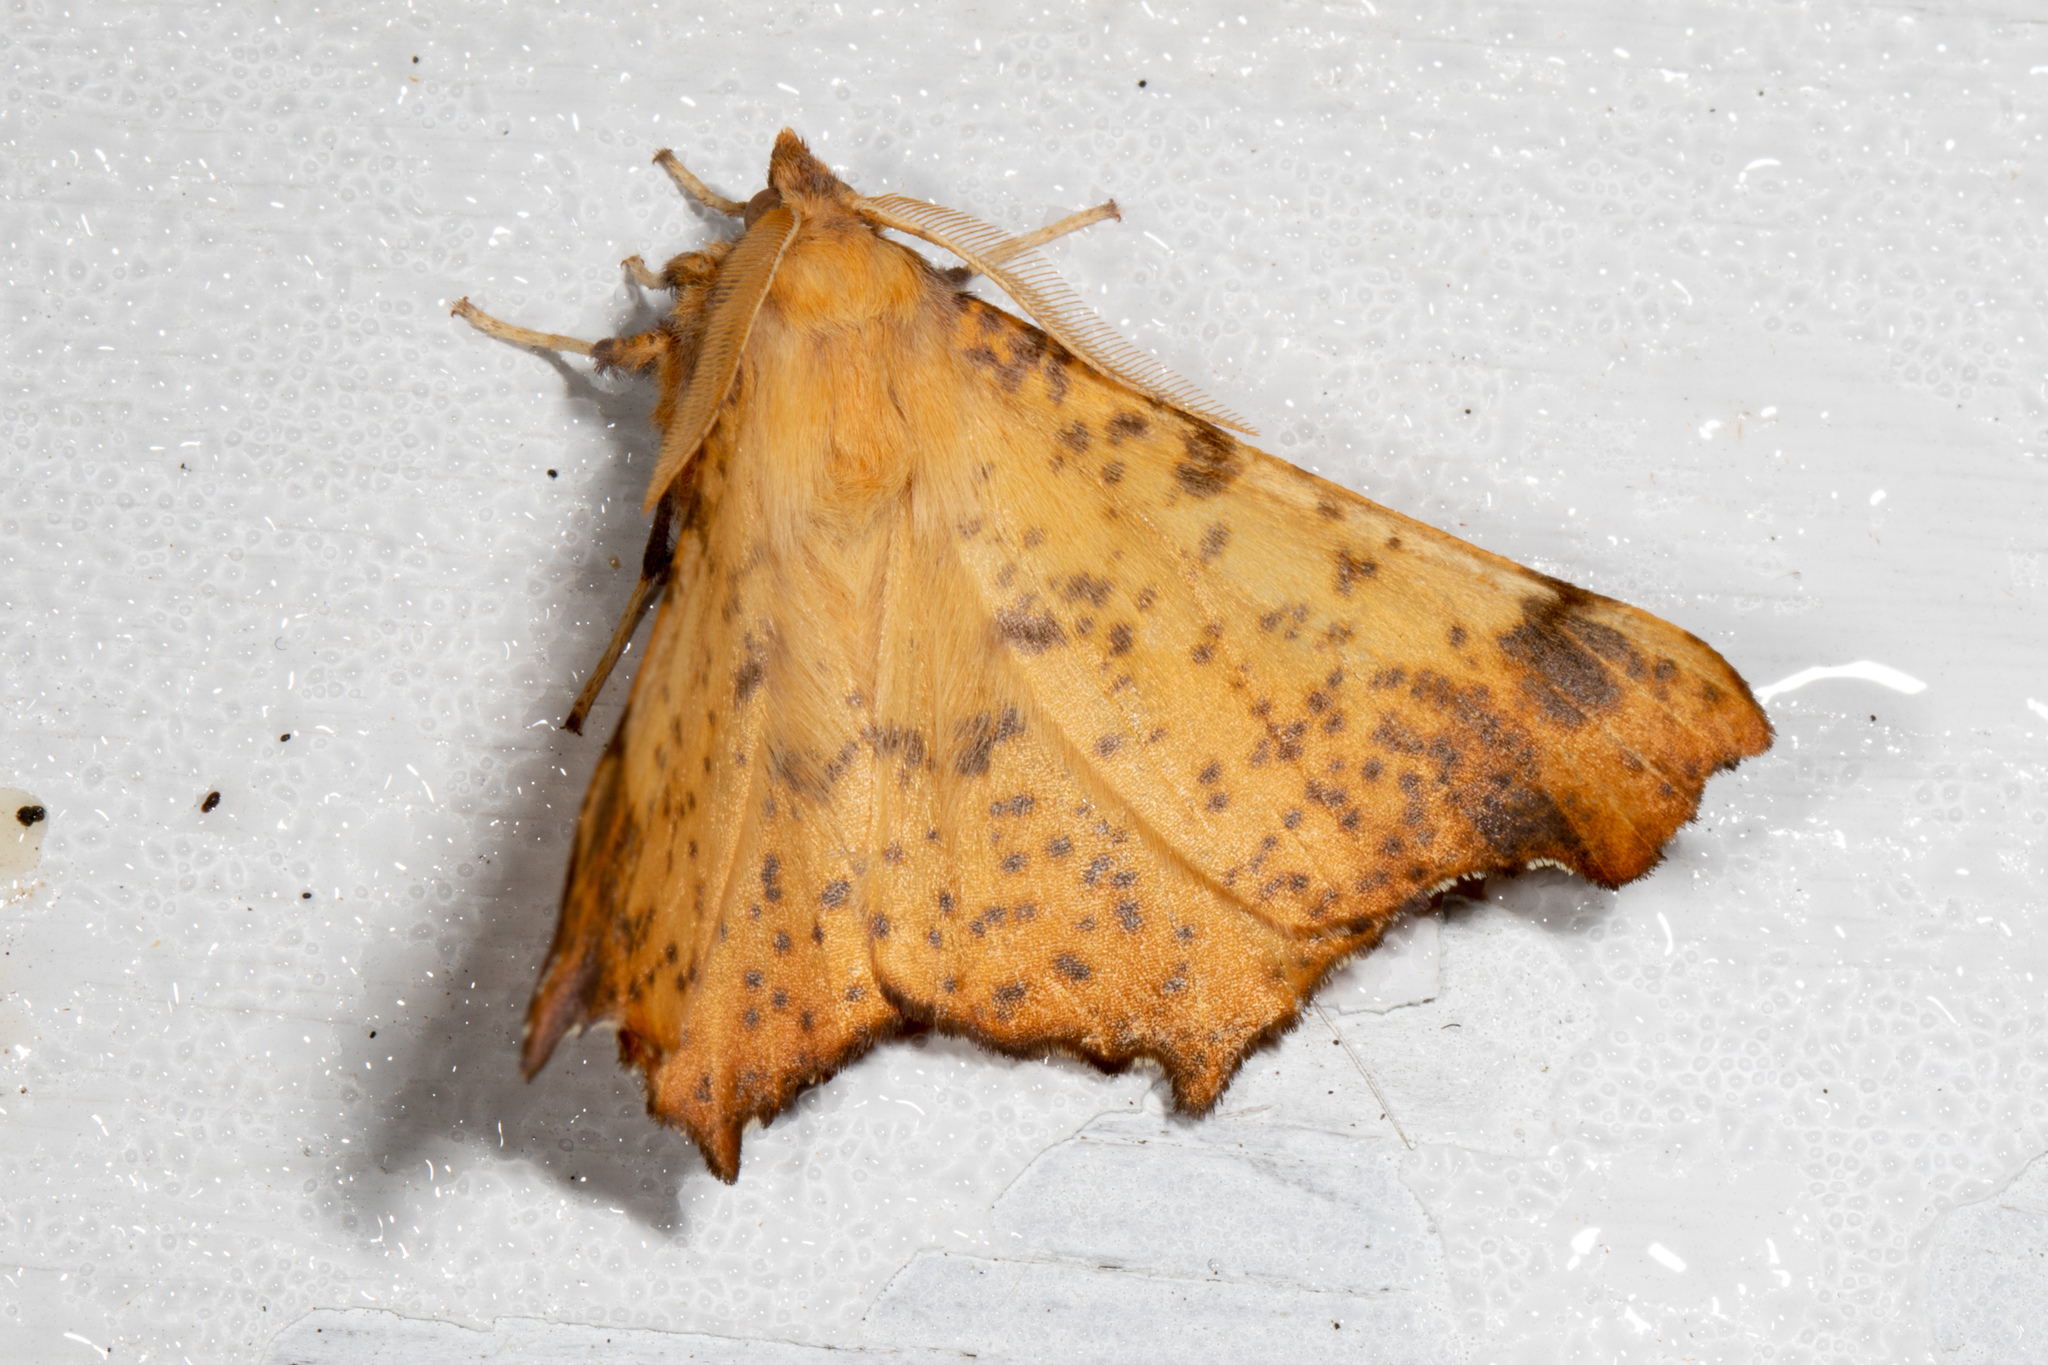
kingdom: Animalia
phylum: Arthropoda
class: Insecta
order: Lepidoptera
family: Geometridae
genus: Ennomos
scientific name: Ennomos magnaria
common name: Maple spanworm
